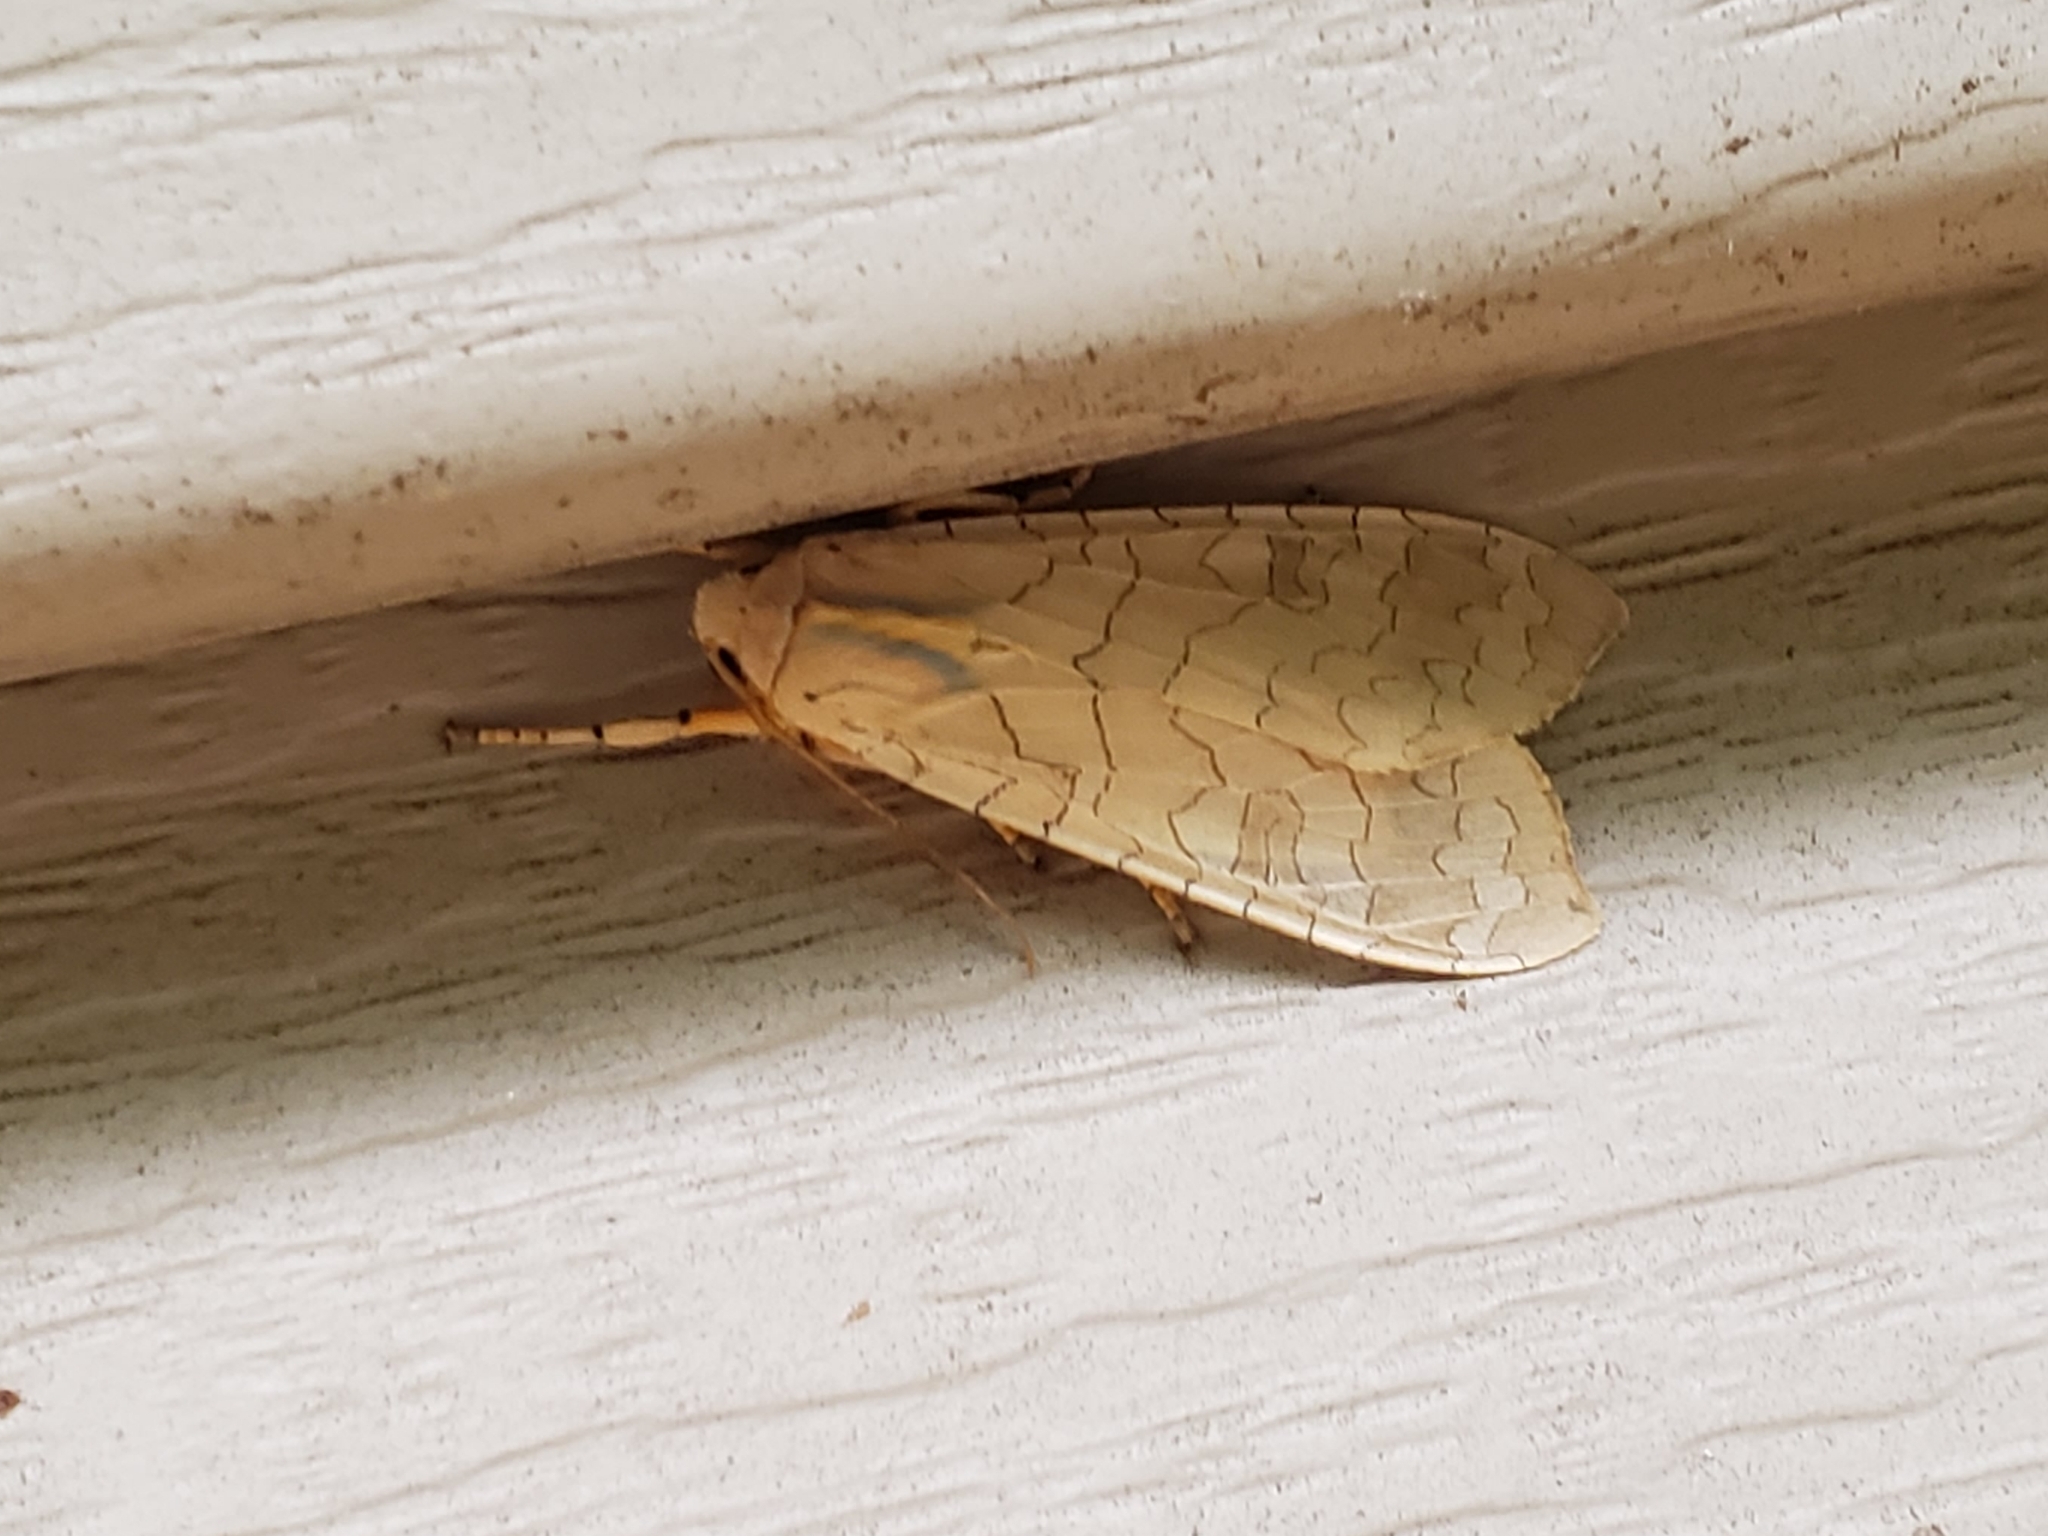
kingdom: Animalia
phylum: Arthropoda
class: Insecta
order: Lepidoptera
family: Erebidae
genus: Halysidota
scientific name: Halysidota
